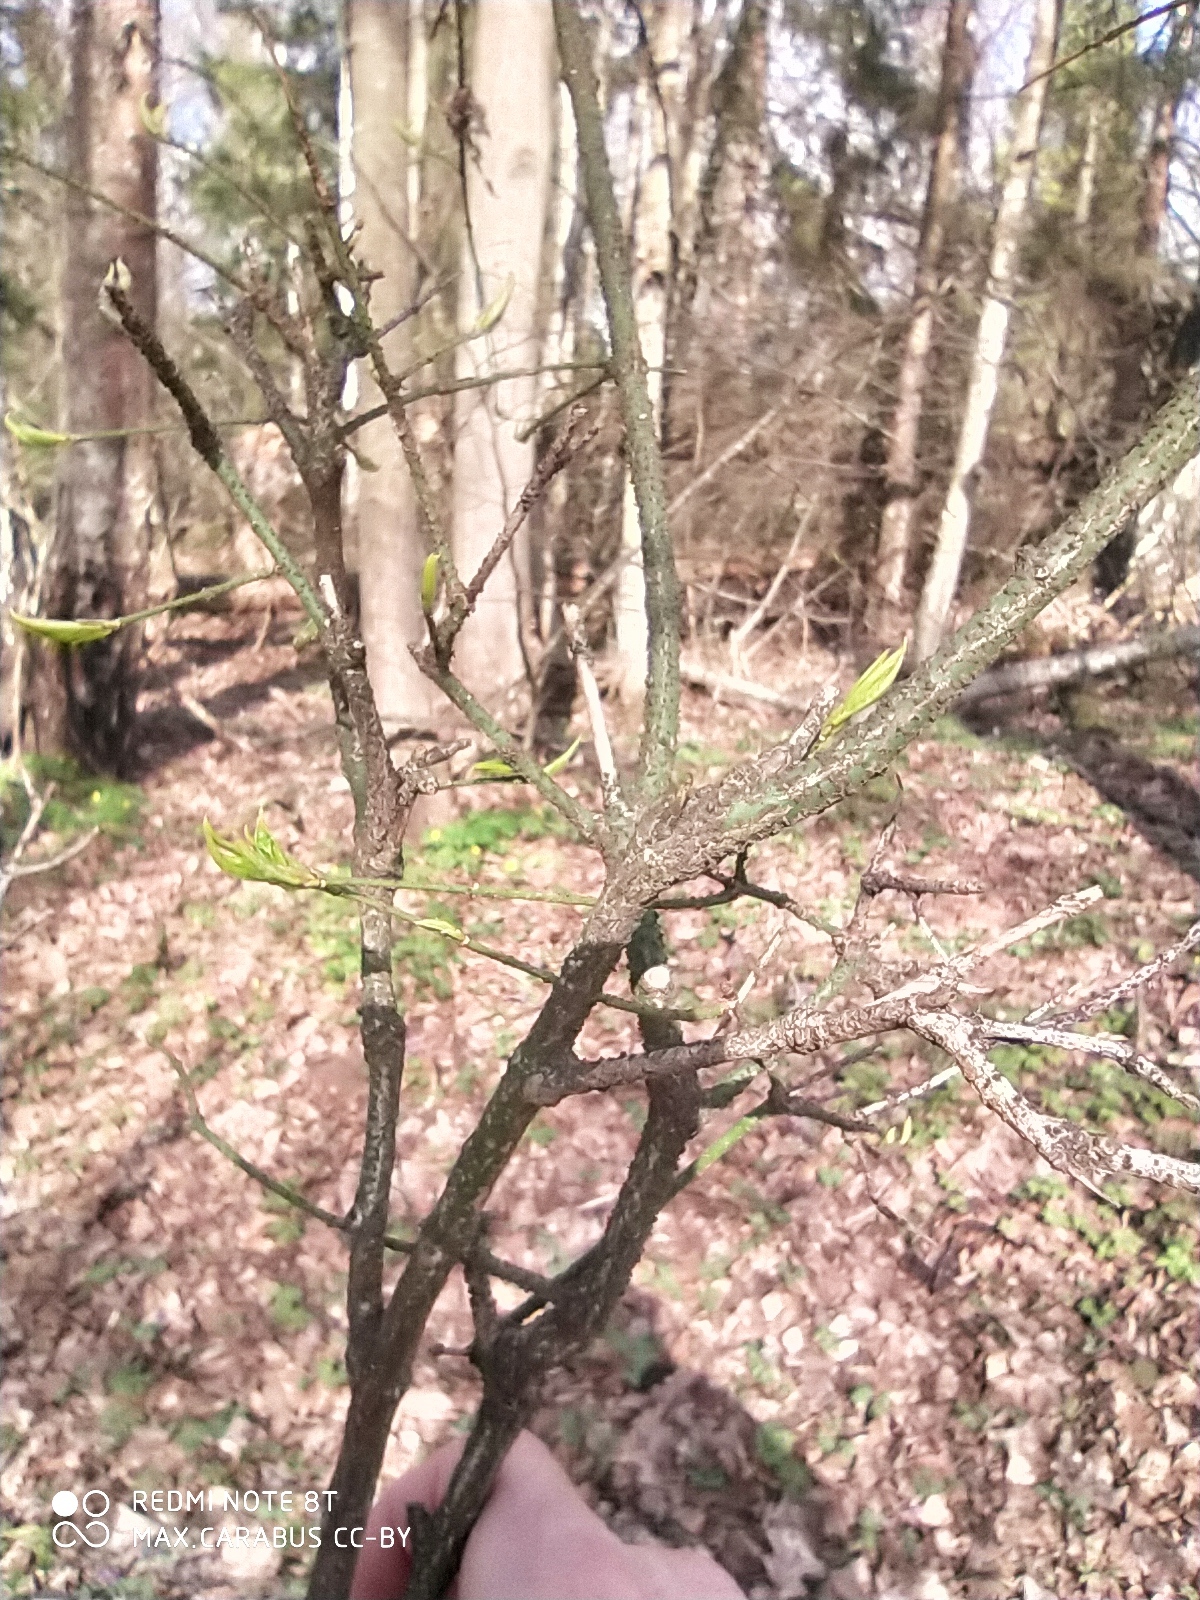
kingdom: Plantae
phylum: Tracheophyta
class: Magnoliopsida
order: Celastrales
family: Celastraceae
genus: Euonymus
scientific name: Euonymus verrucosus
